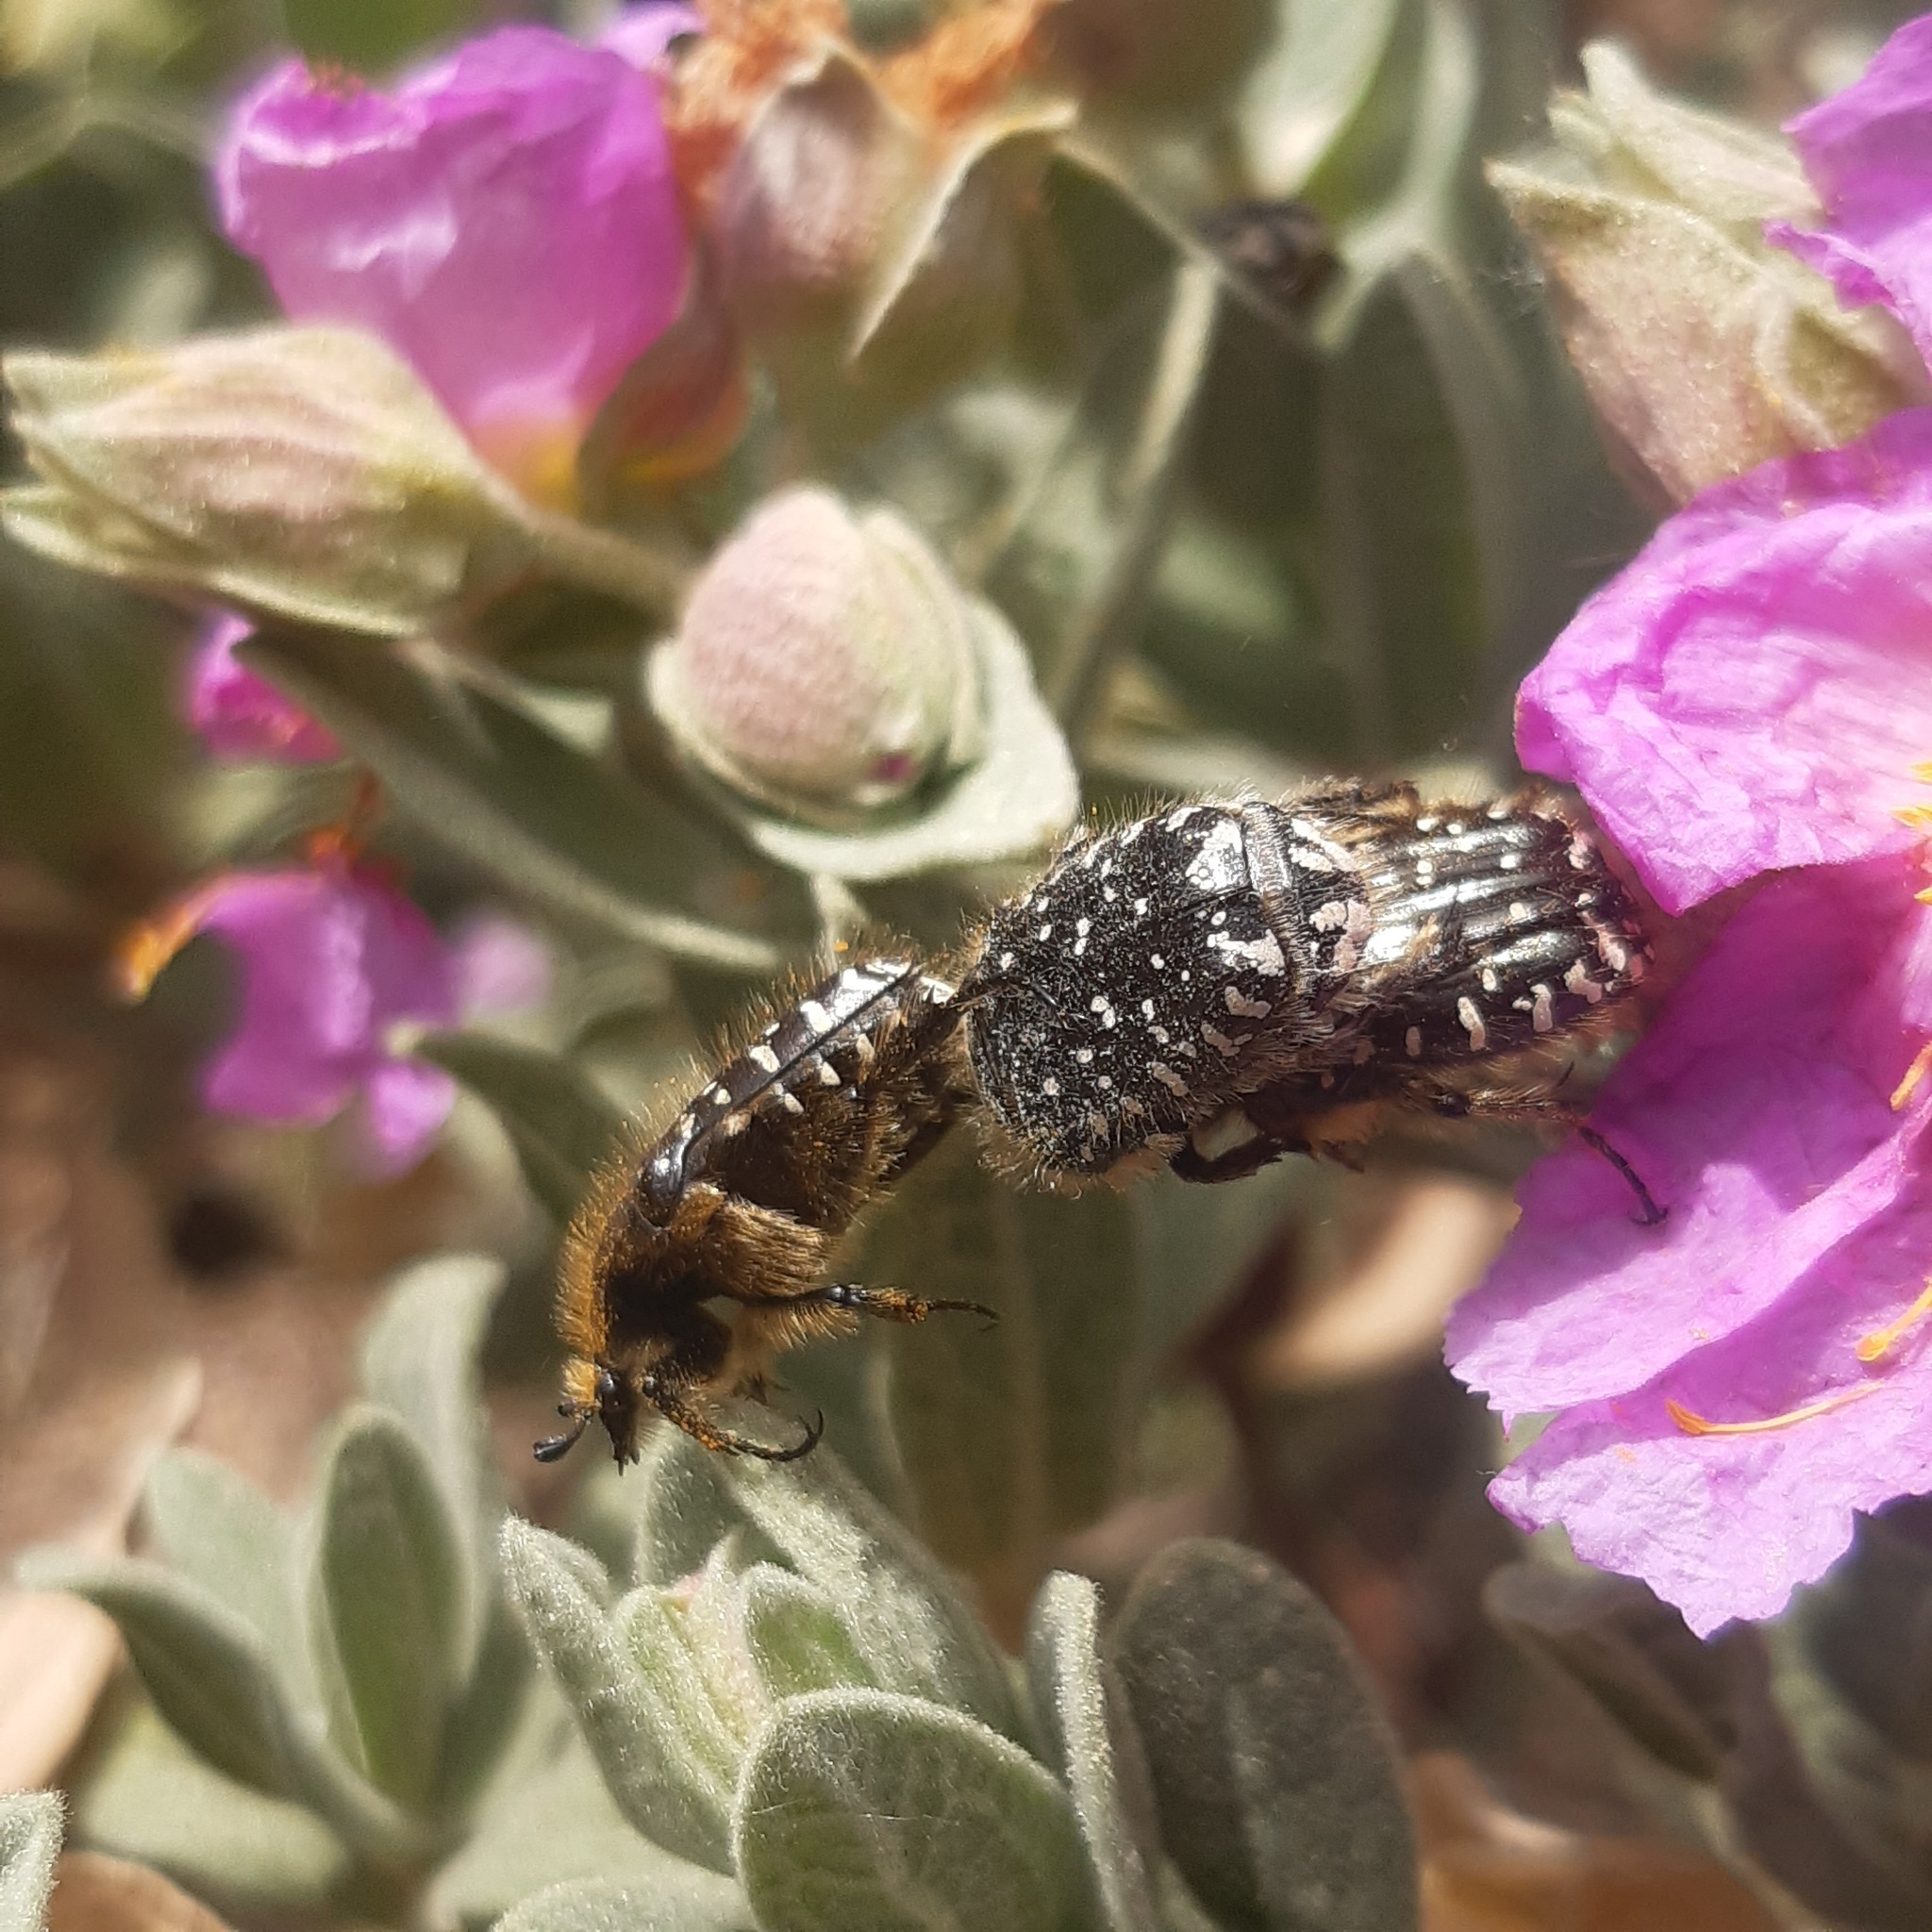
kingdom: Animalia
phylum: Arthropoda
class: Insecta
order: Coleoptera
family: Scarabaeidae
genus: Oxythyrea
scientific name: Oxythyrea funesta
